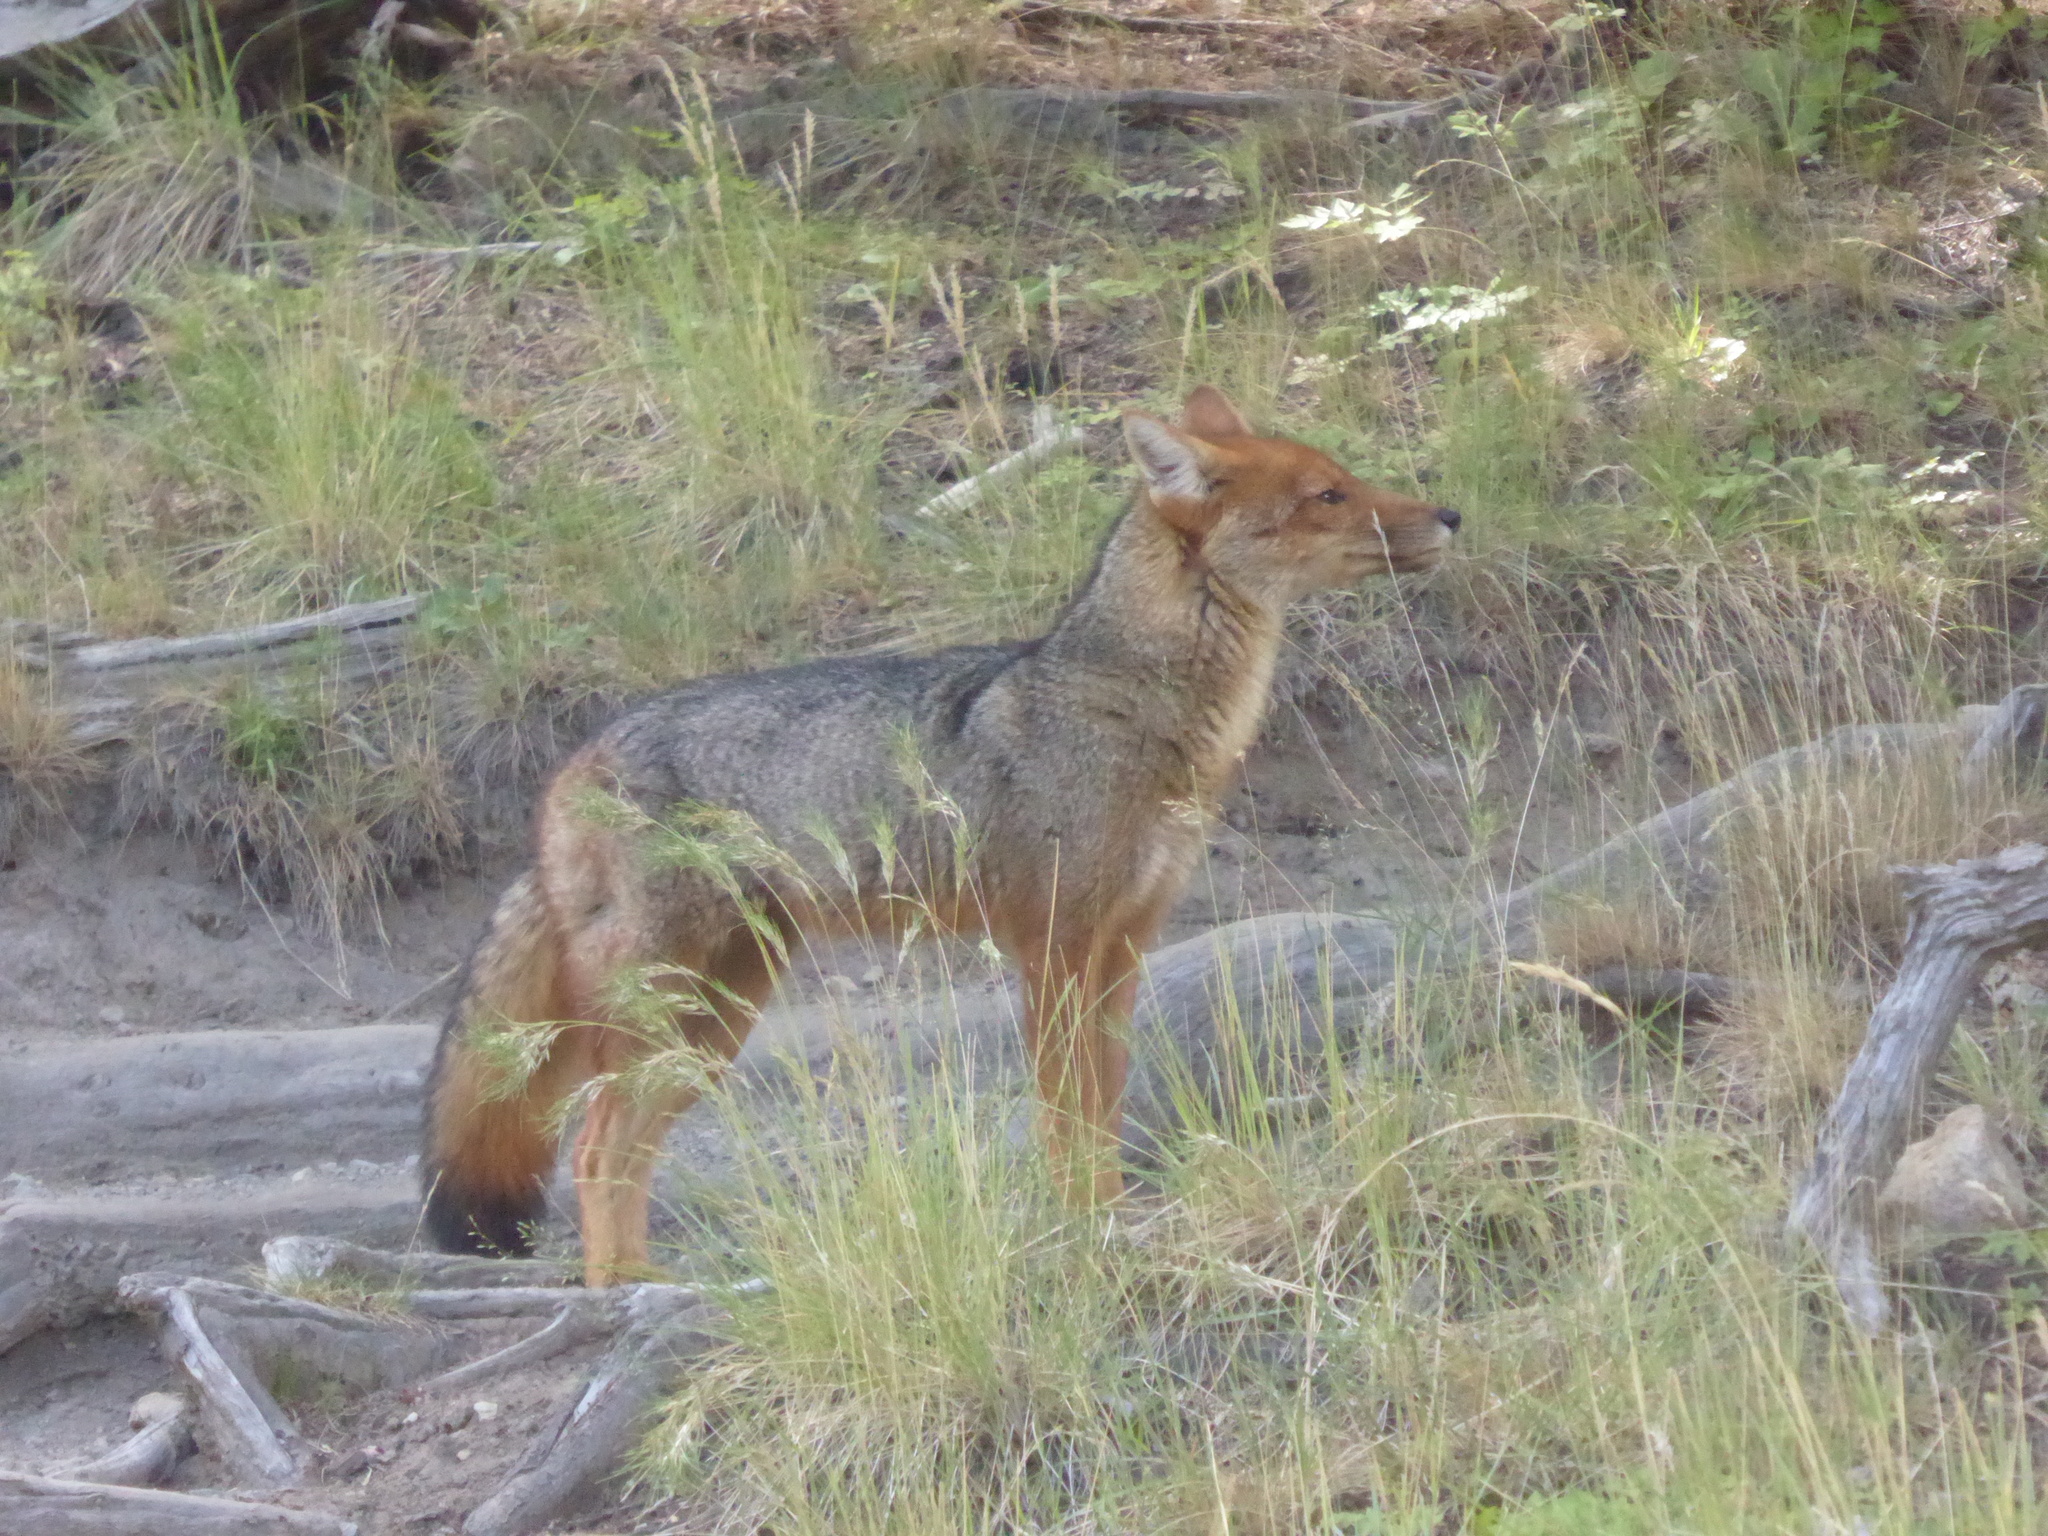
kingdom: Animalia
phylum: Chordata
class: Mammalia
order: Carnivora
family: Canidae
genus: Lycalopex
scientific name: Lycalopex culpaeus
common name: Culpeo
